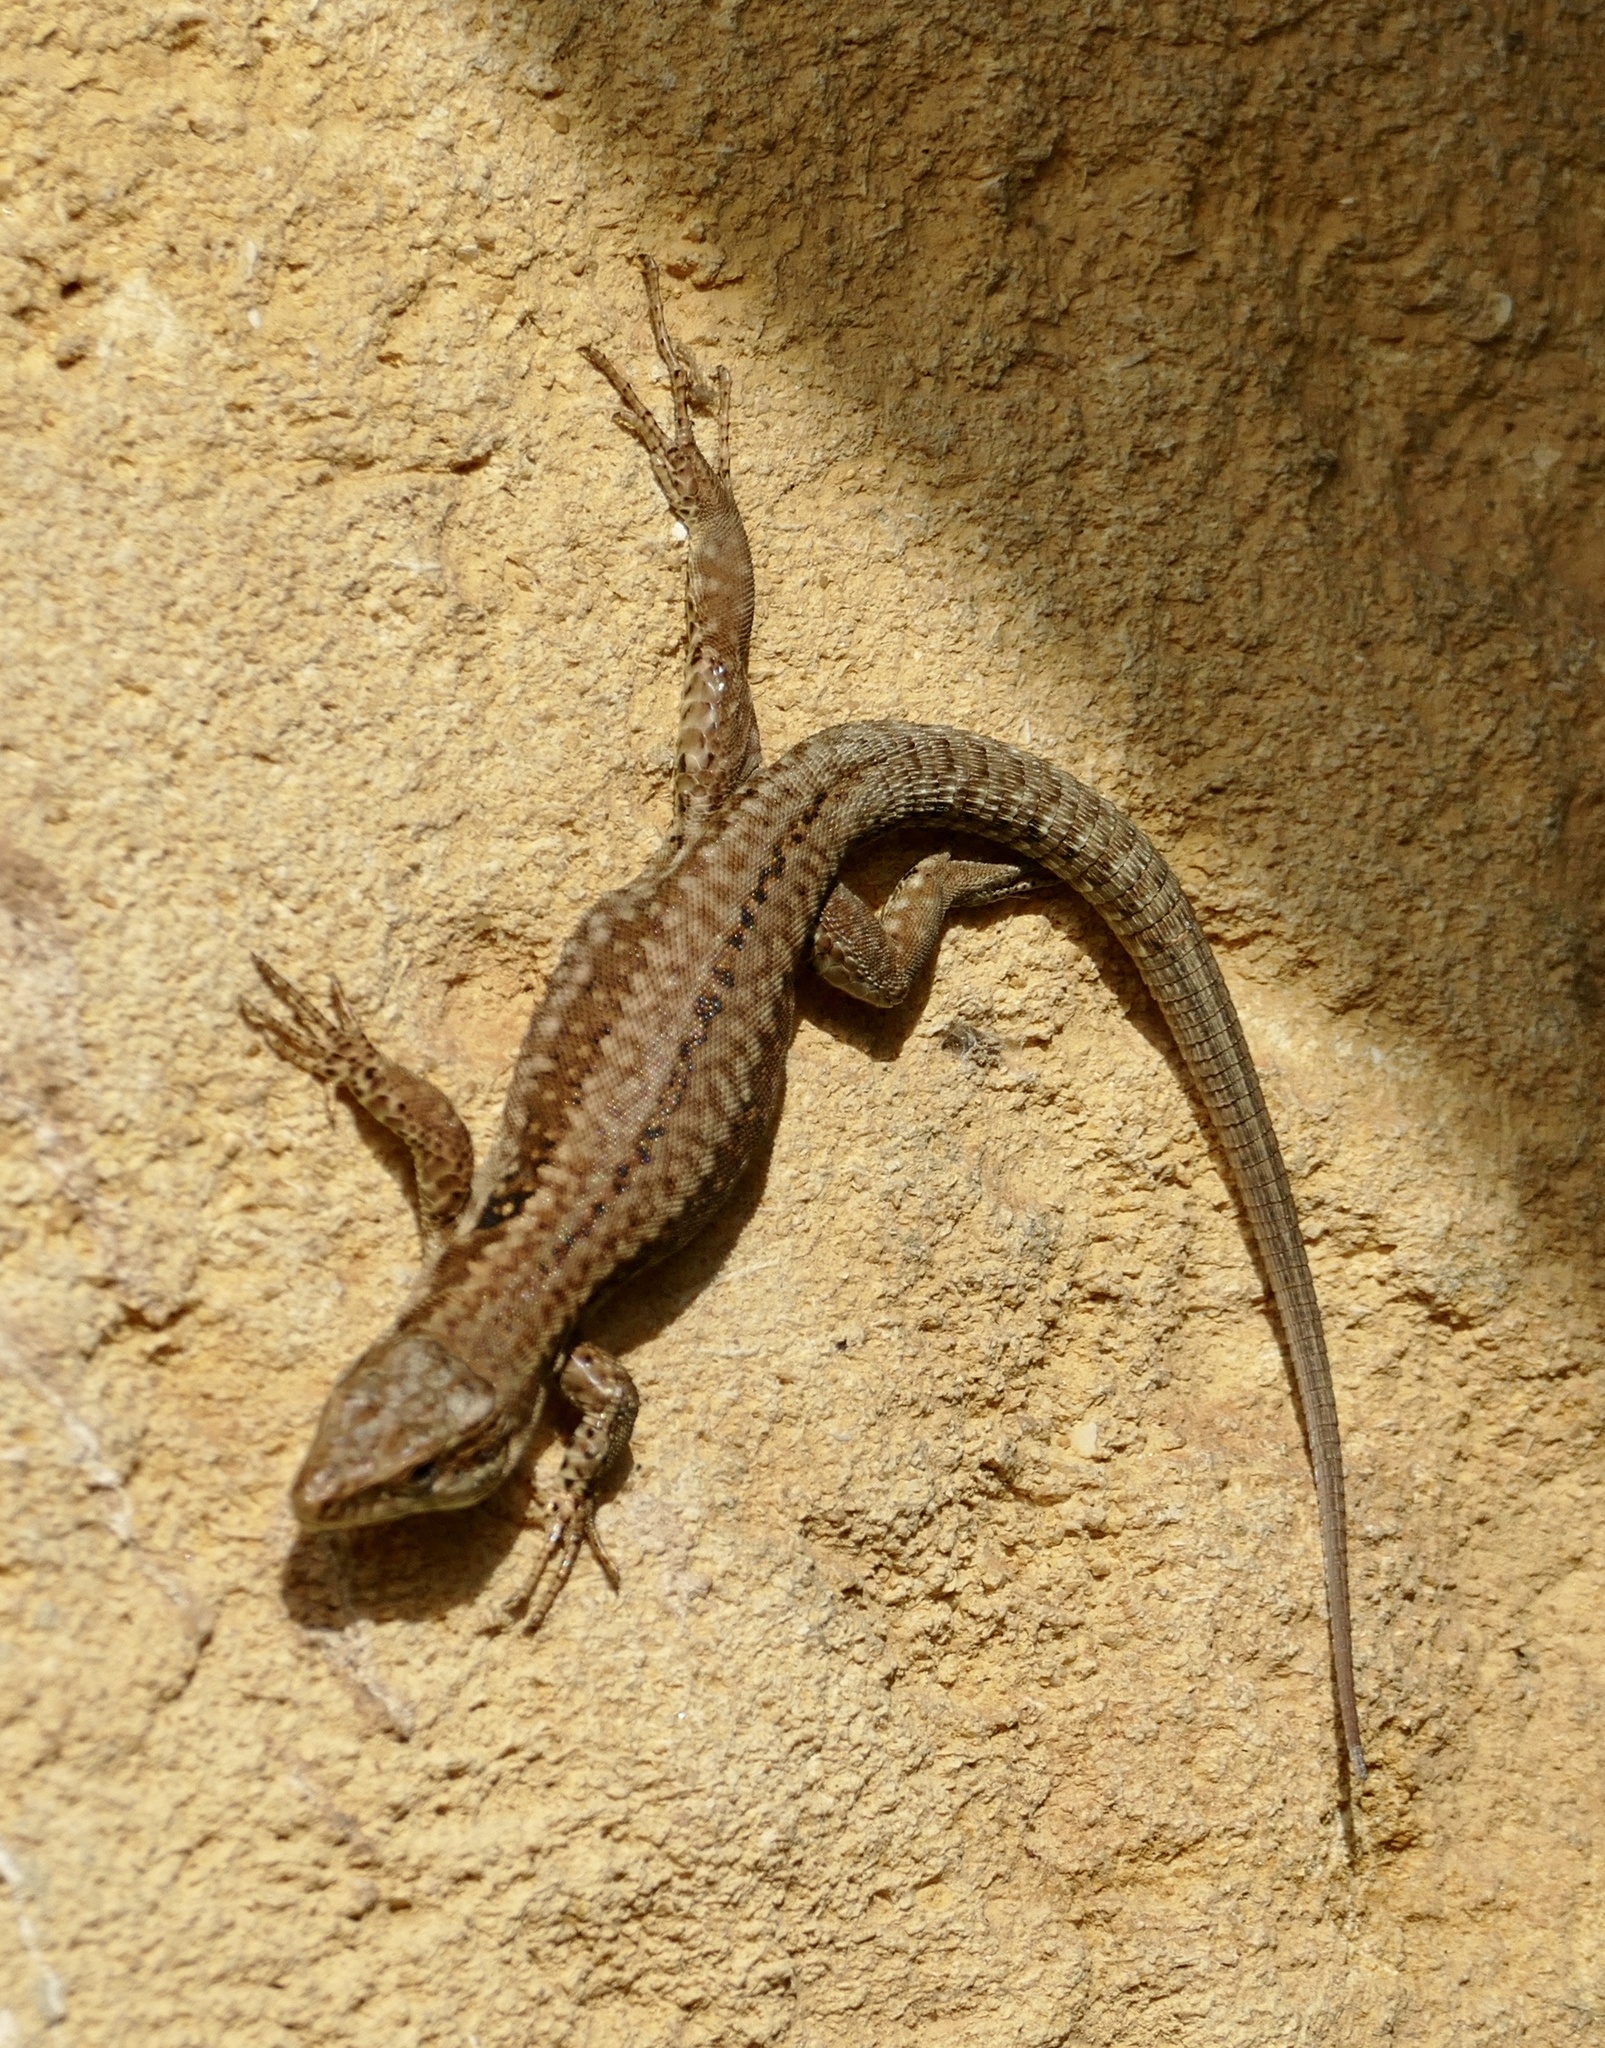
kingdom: Animalia
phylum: Chordata
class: Squamata
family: Lacertidae
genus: Podarcis
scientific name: Podarcis muralis
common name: Common wall lizard
